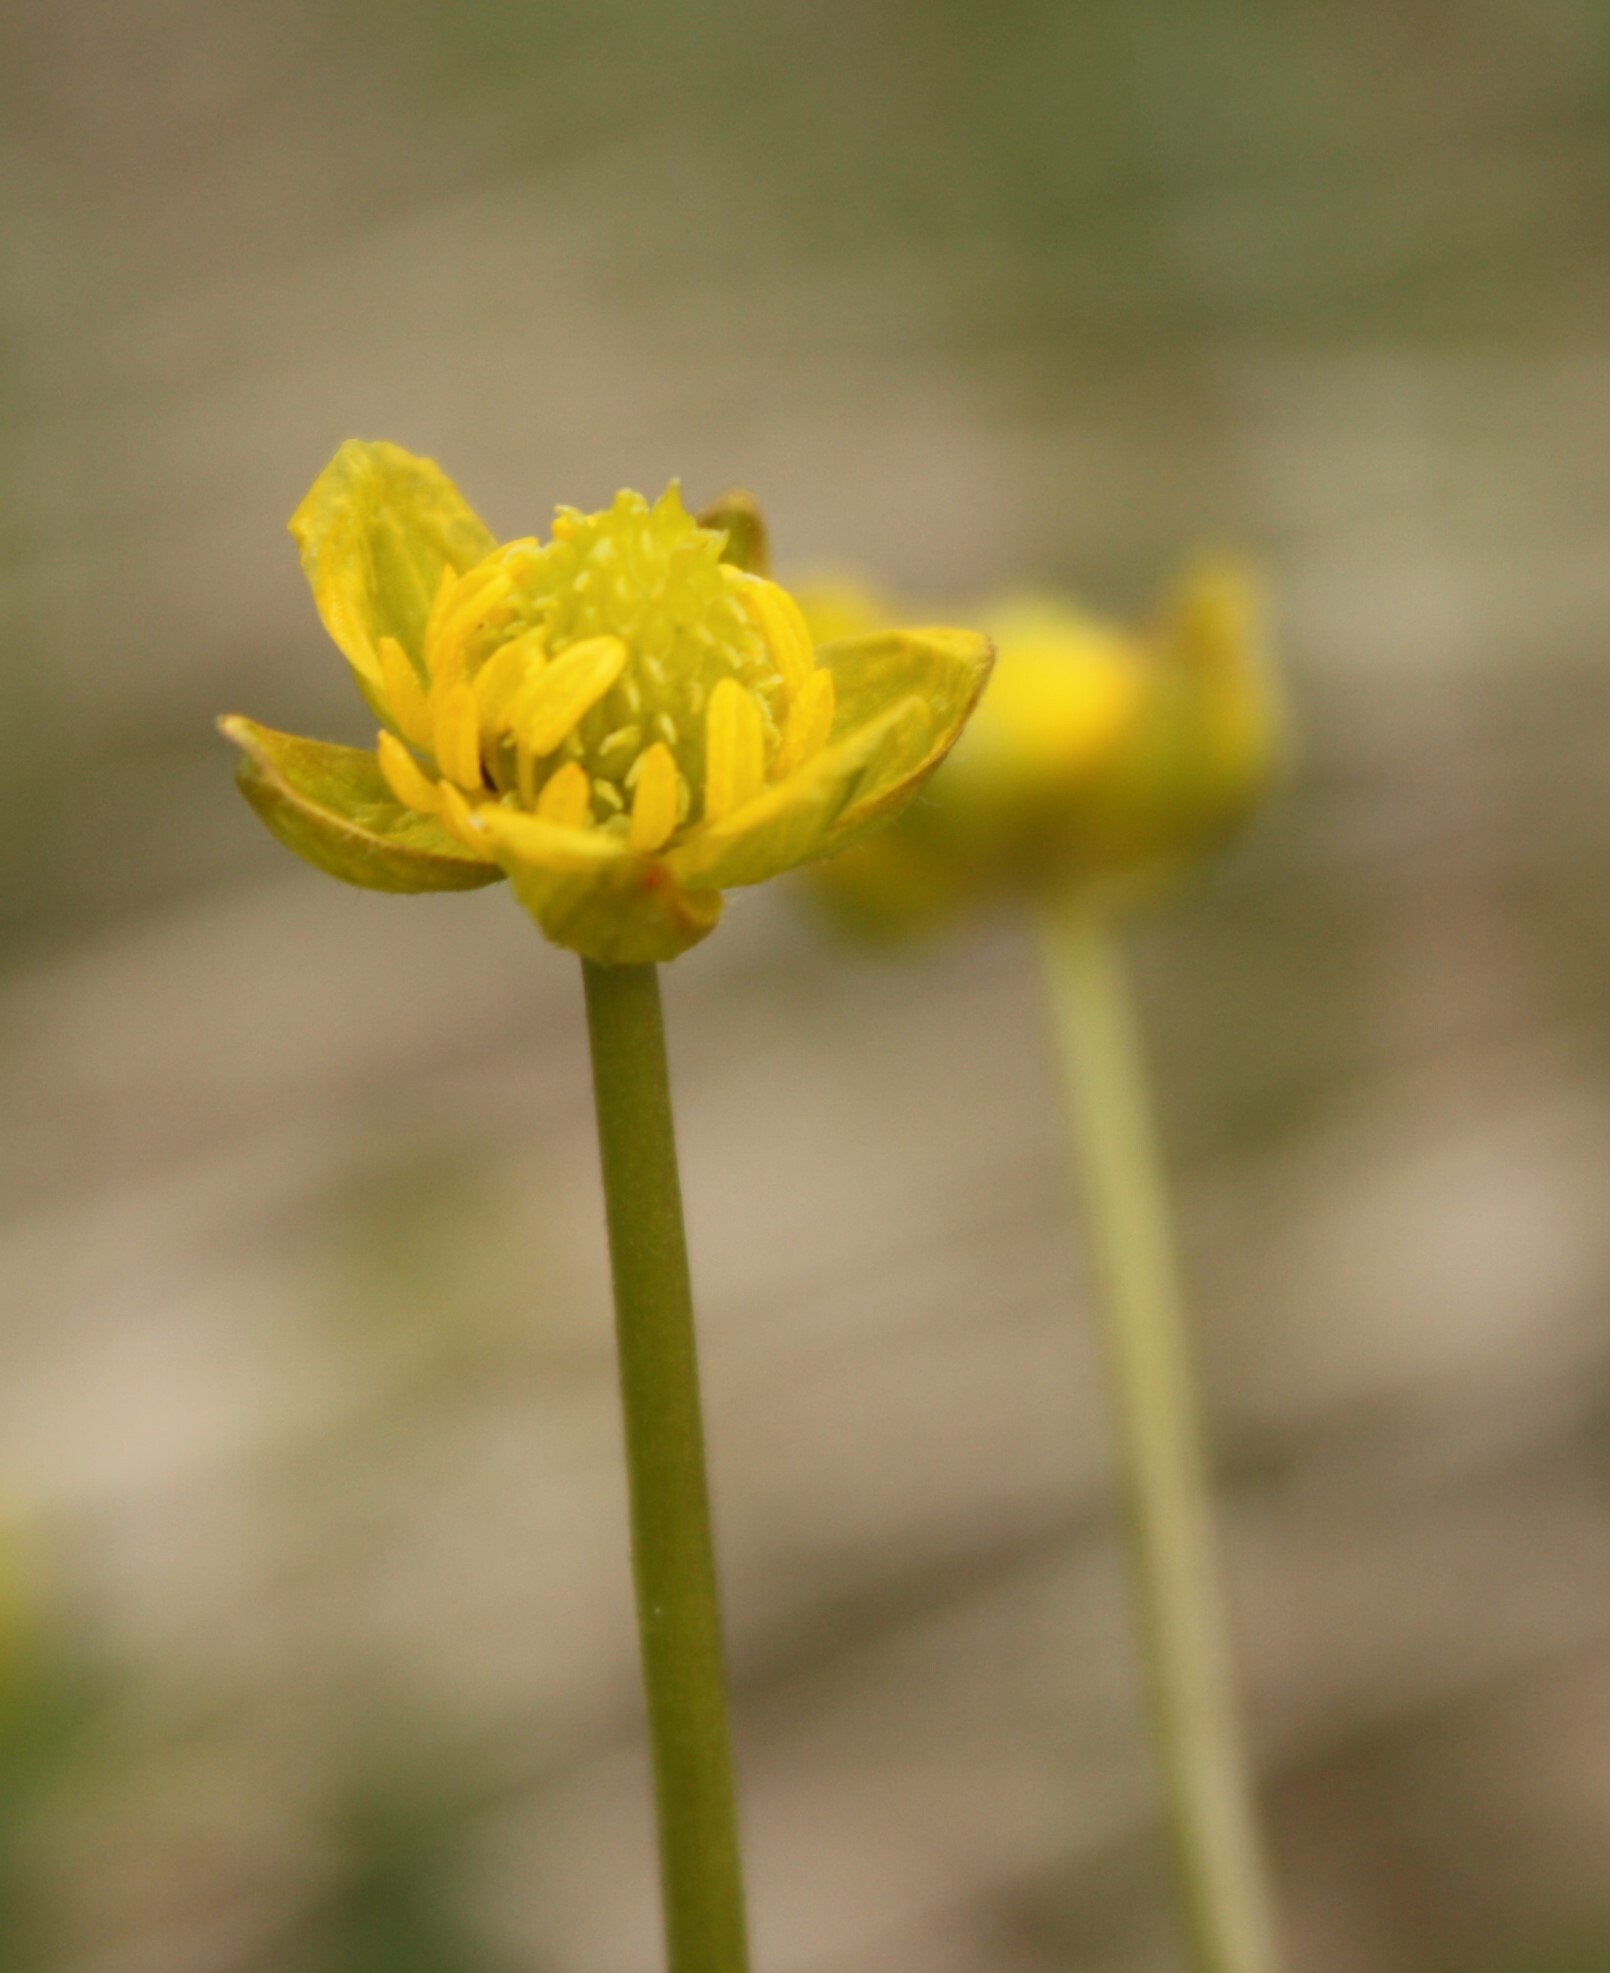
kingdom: Plantae
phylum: Tracheophyta
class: Magnoliopsida
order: Ranunculales
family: Ranunculaceae
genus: Ranunculus
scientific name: Ranunculus
